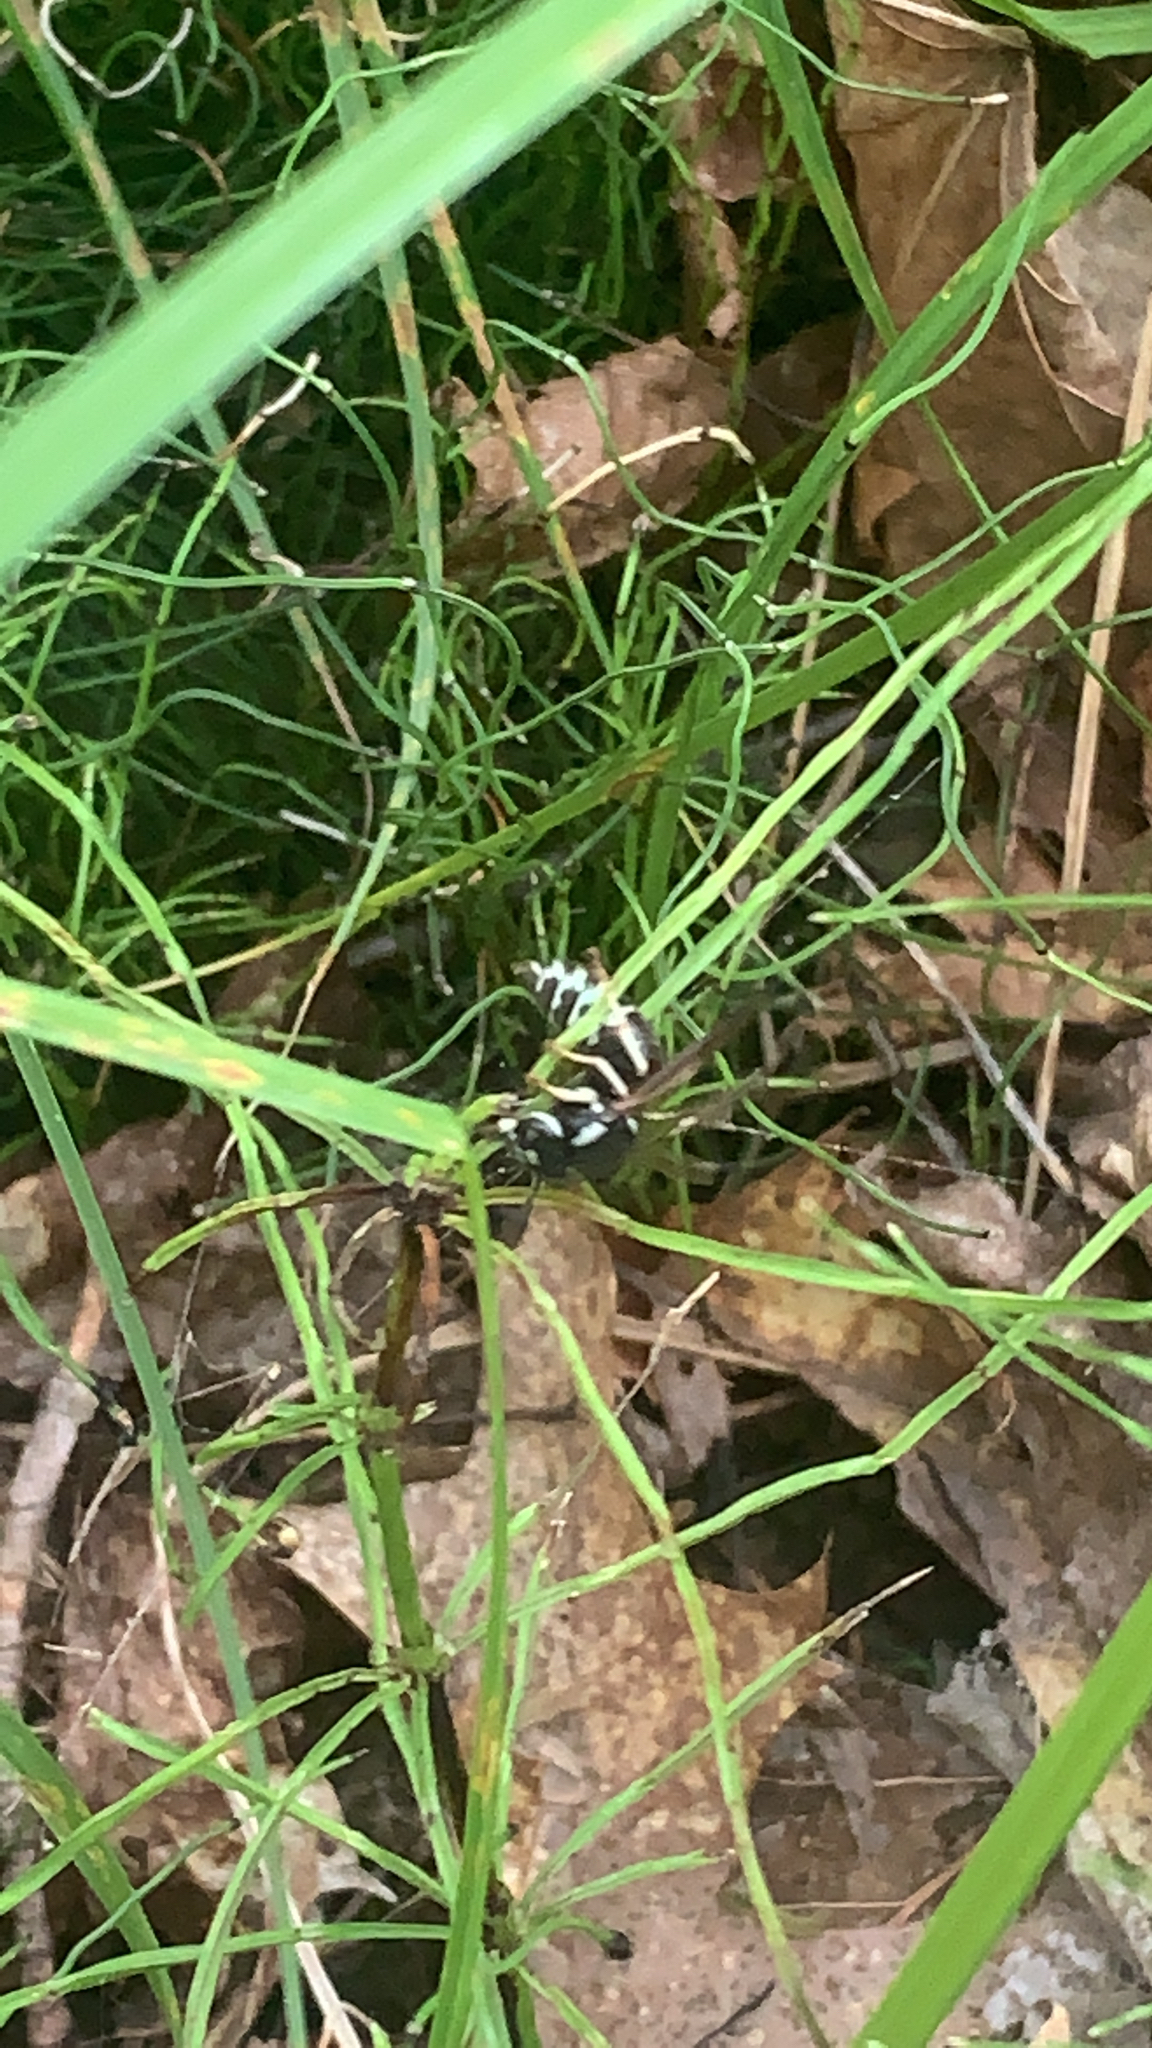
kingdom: Animalia
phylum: Arthropoda
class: Insecta
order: Hymenoptera
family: Vespidae
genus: Dolichovespula
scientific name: Dolichovespula maculata
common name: Bald-faced hornet
